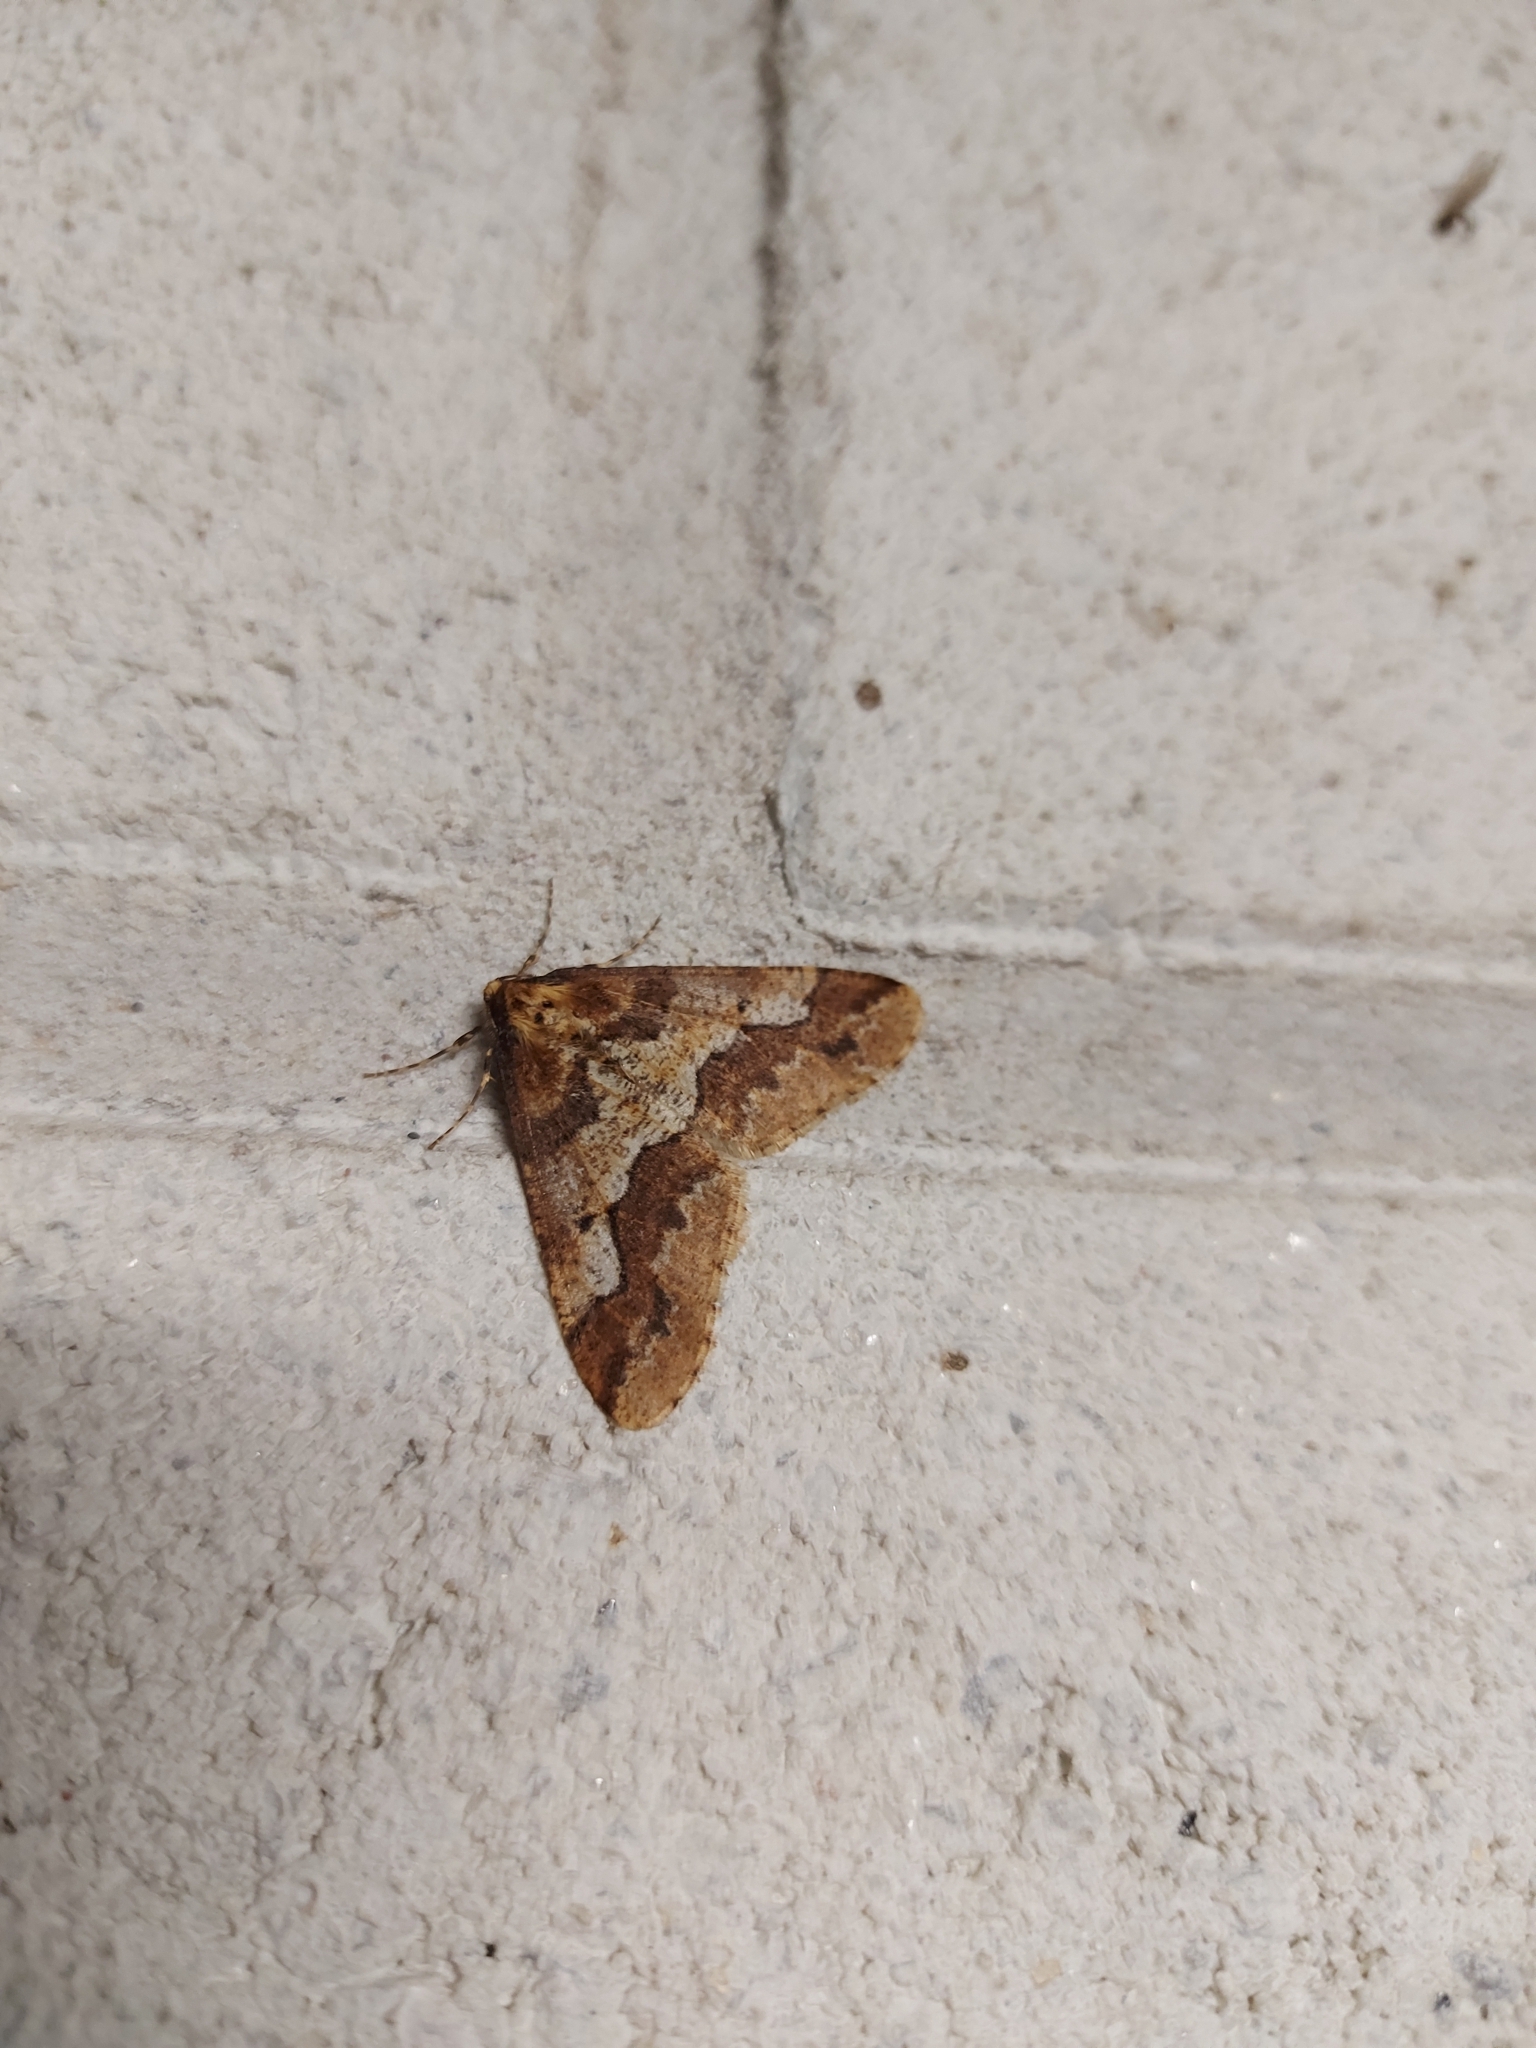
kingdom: Animalia
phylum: Arthropoda
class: Insecta
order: Lepidoptera
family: Geometridae
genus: Erannis
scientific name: Erannis defoliaria
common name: Mottled umber
